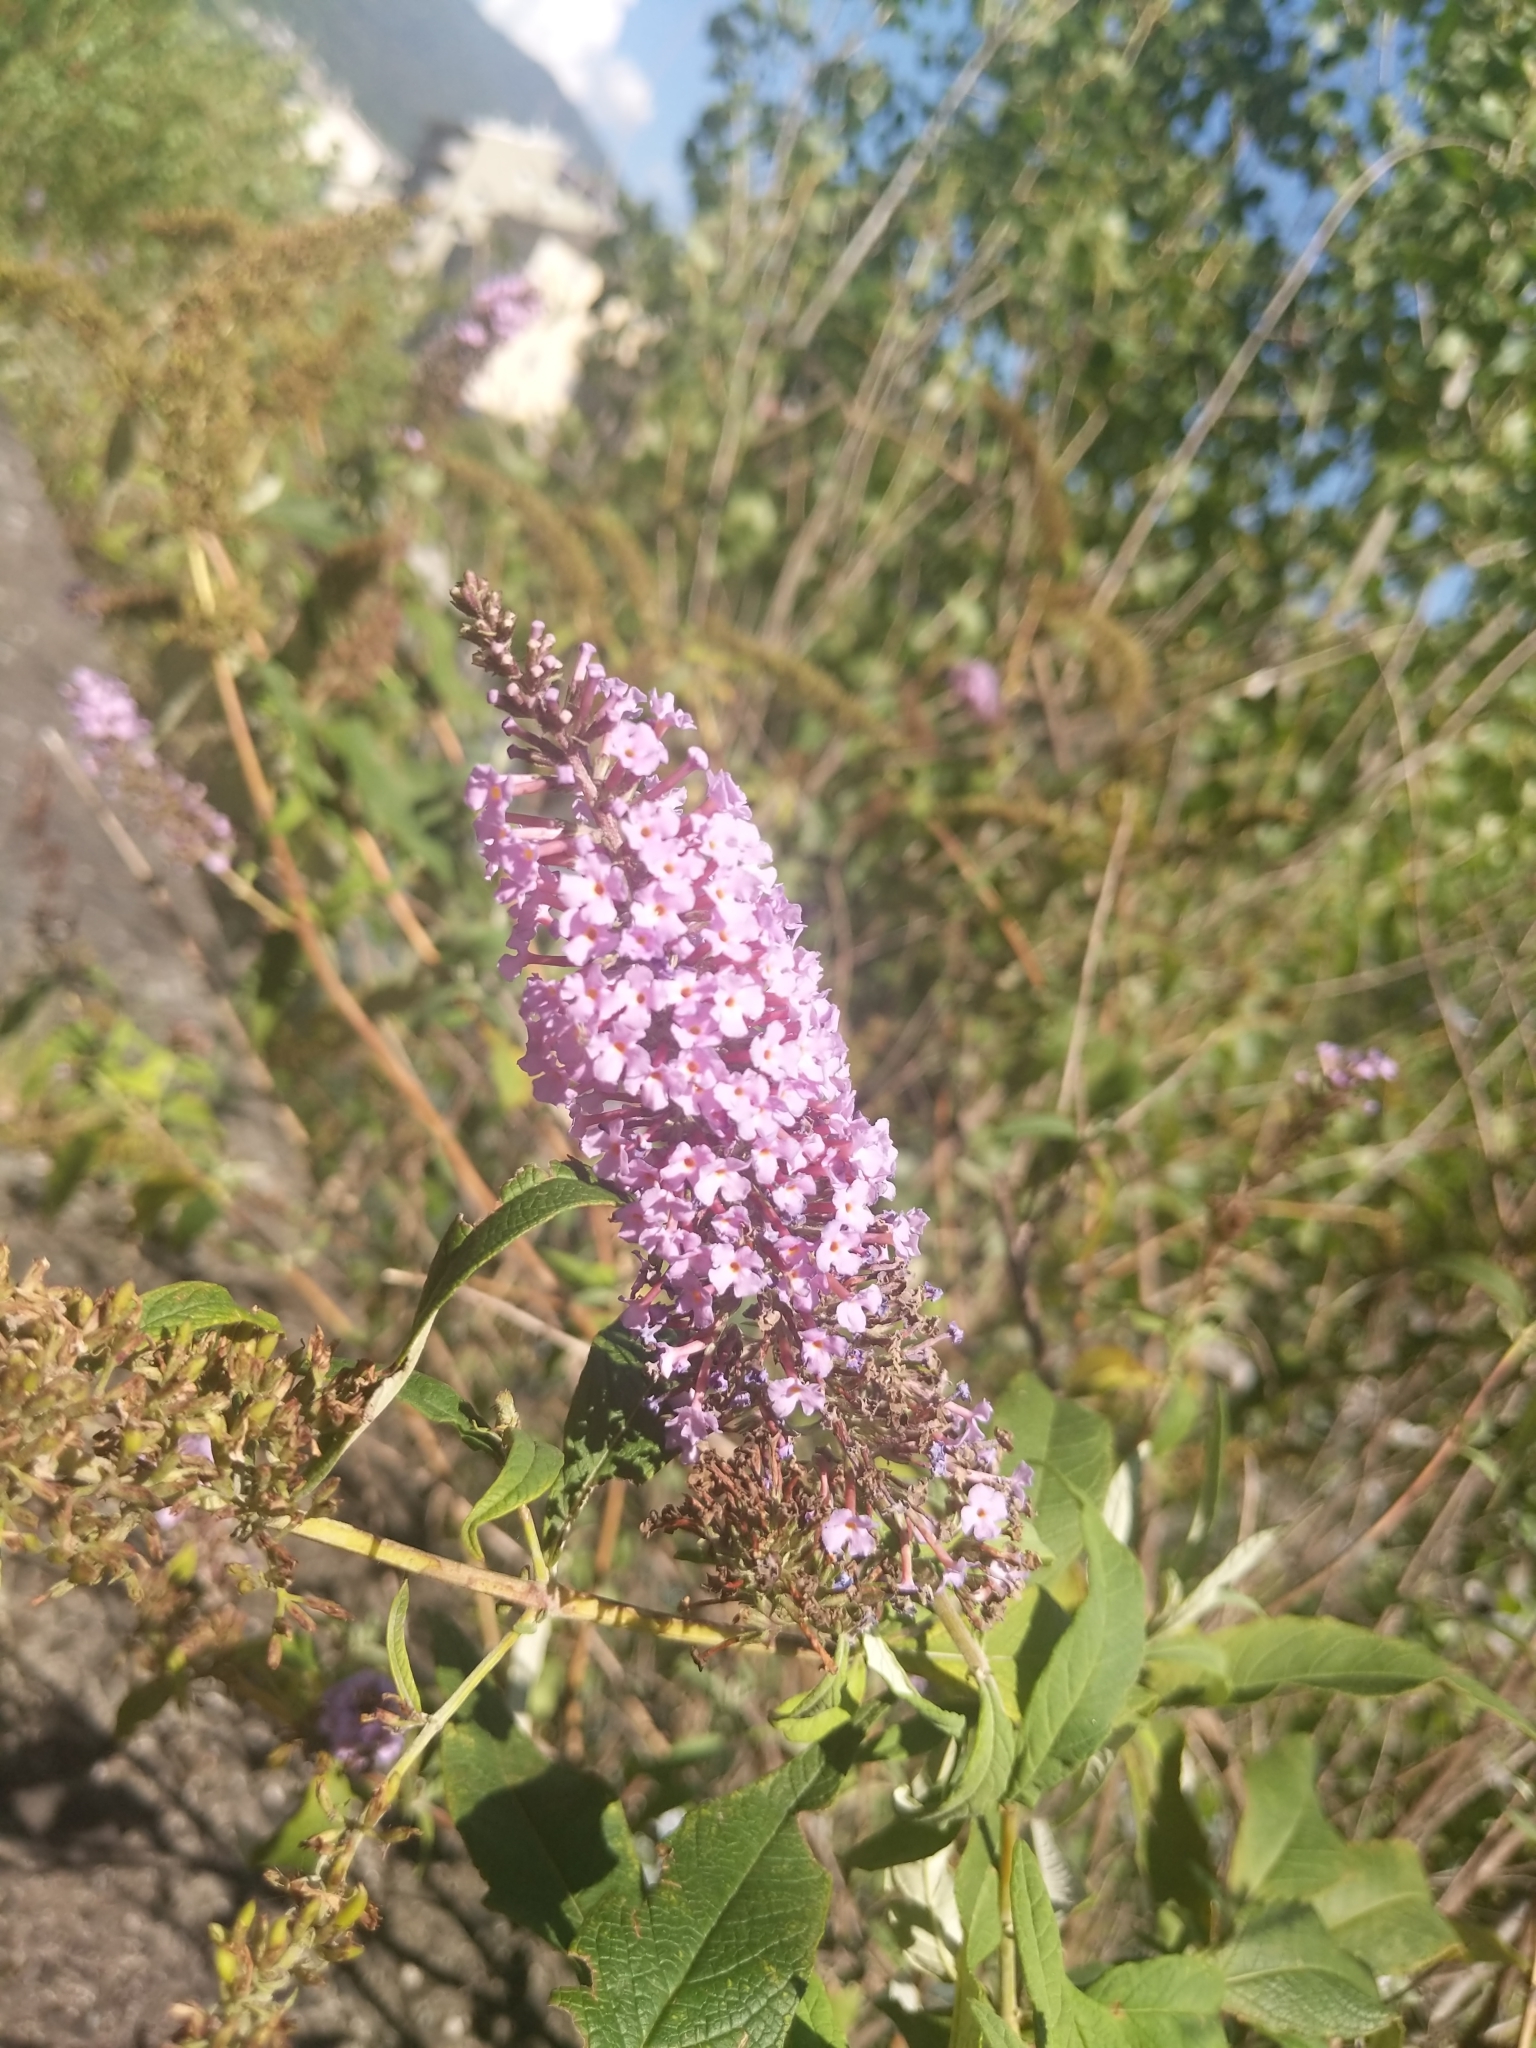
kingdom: Plantae
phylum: Tracheophyta
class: Magnoliopsida
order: Lamiales
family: Scrophulariaceae
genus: Buddleja
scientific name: Buddleja davidii
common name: Butterfly-bush
